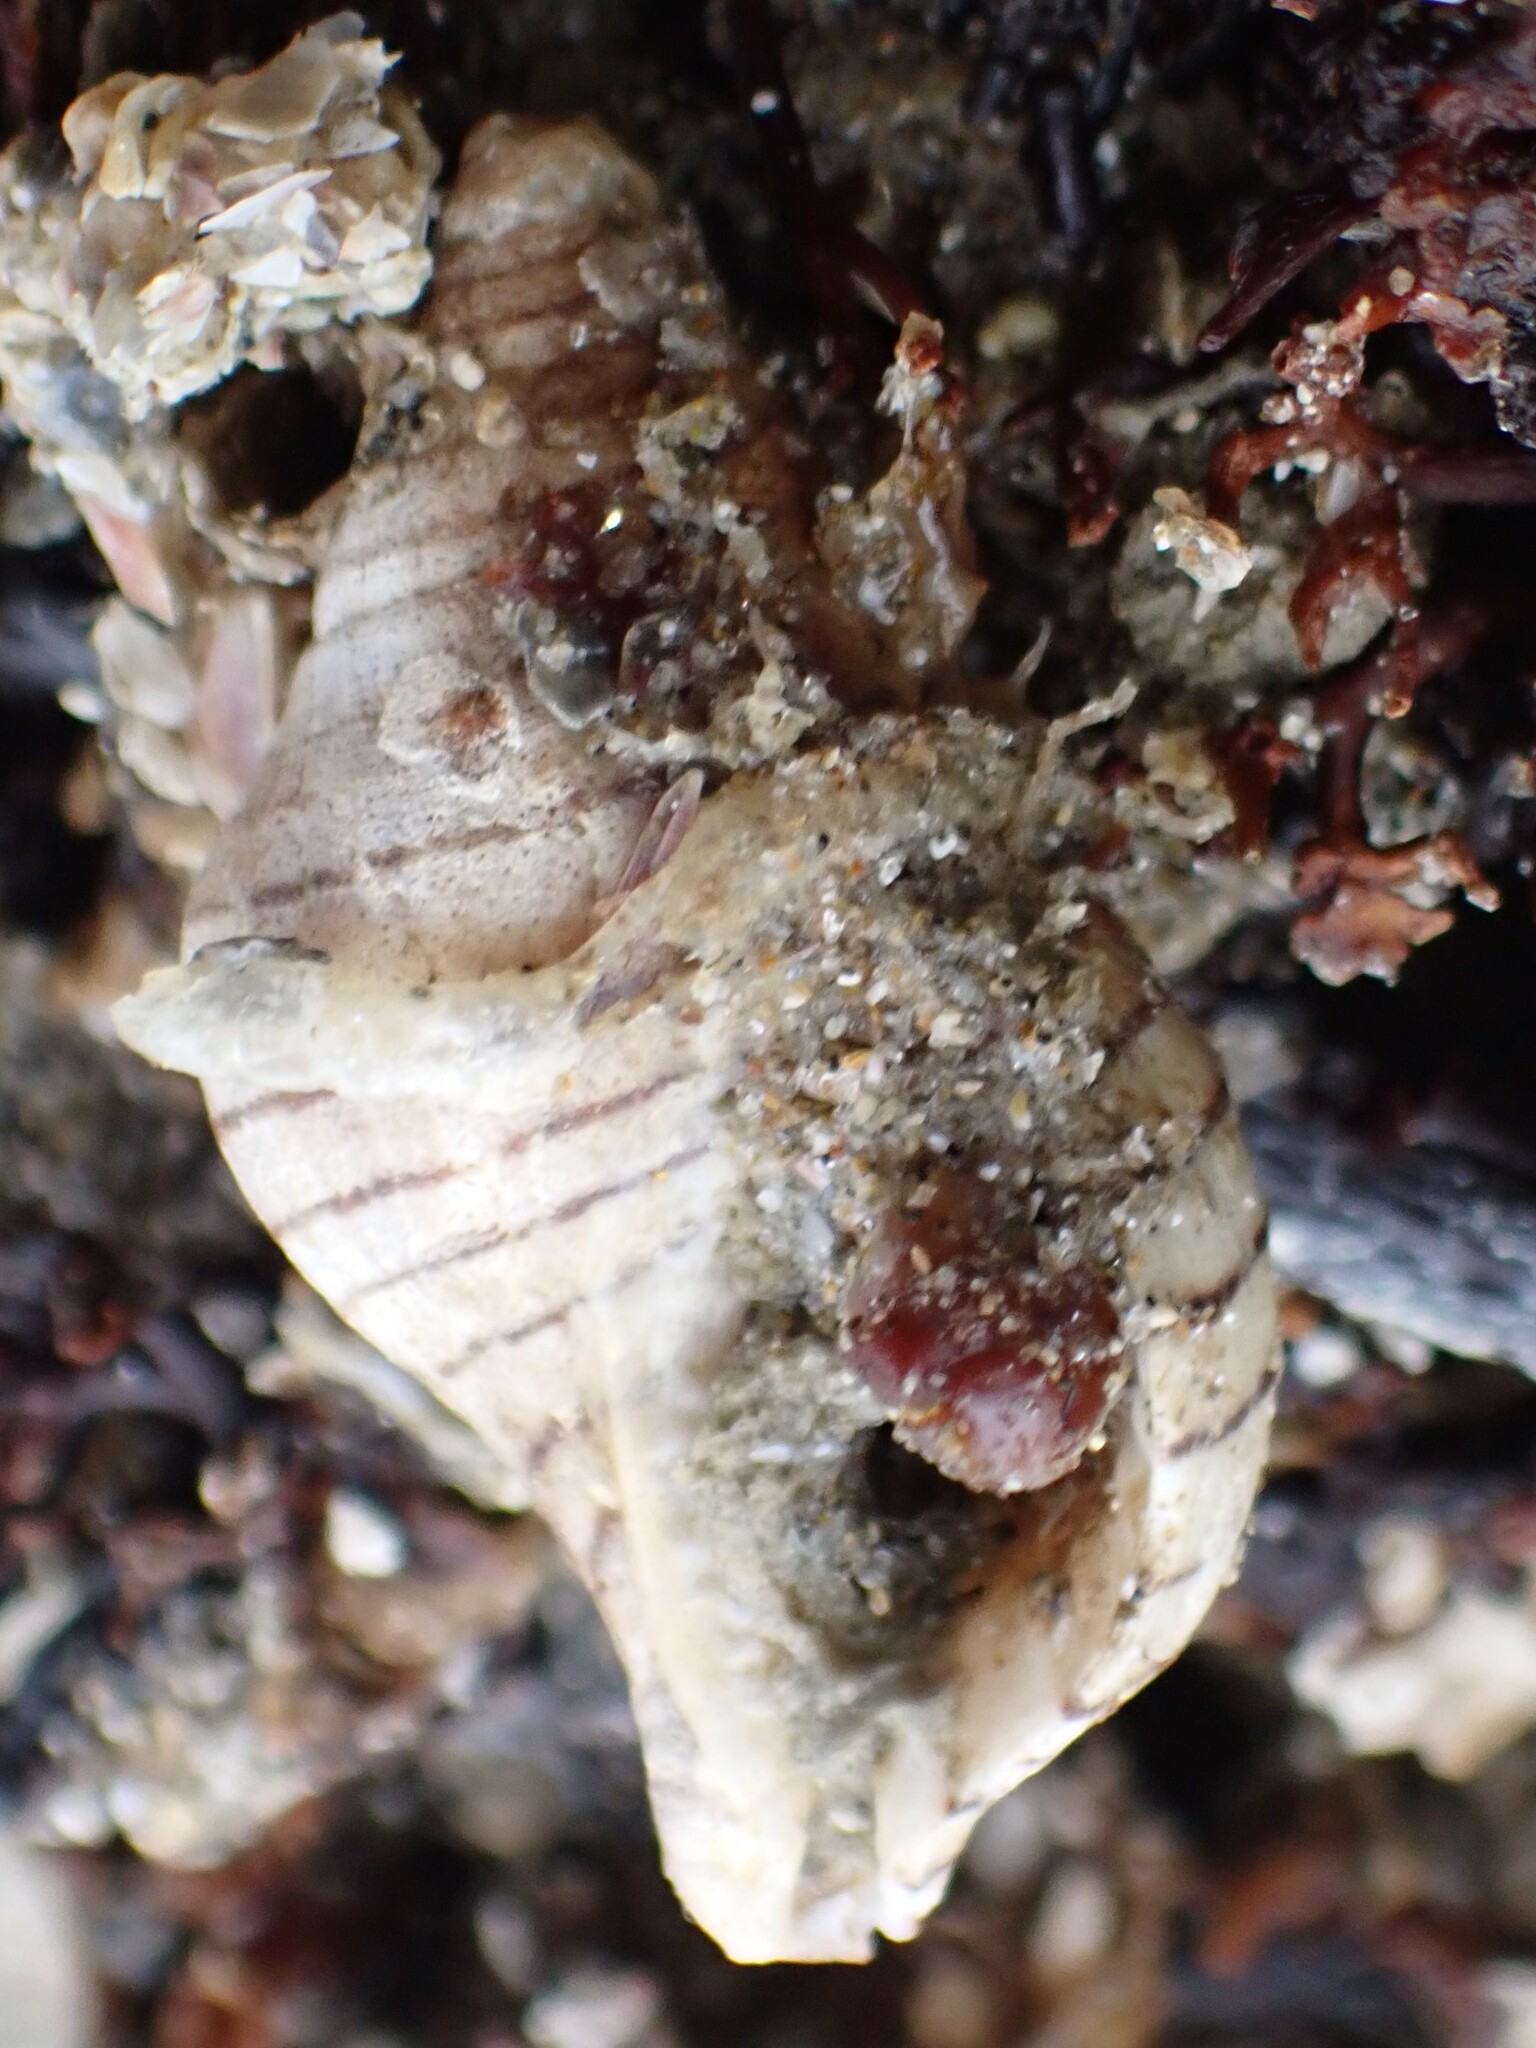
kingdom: Animalia
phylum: Mollusca
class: Gastropoda
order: Neogastropoda
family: Tudiclidae
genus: Buccinulum
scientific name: Buccinulum linea
